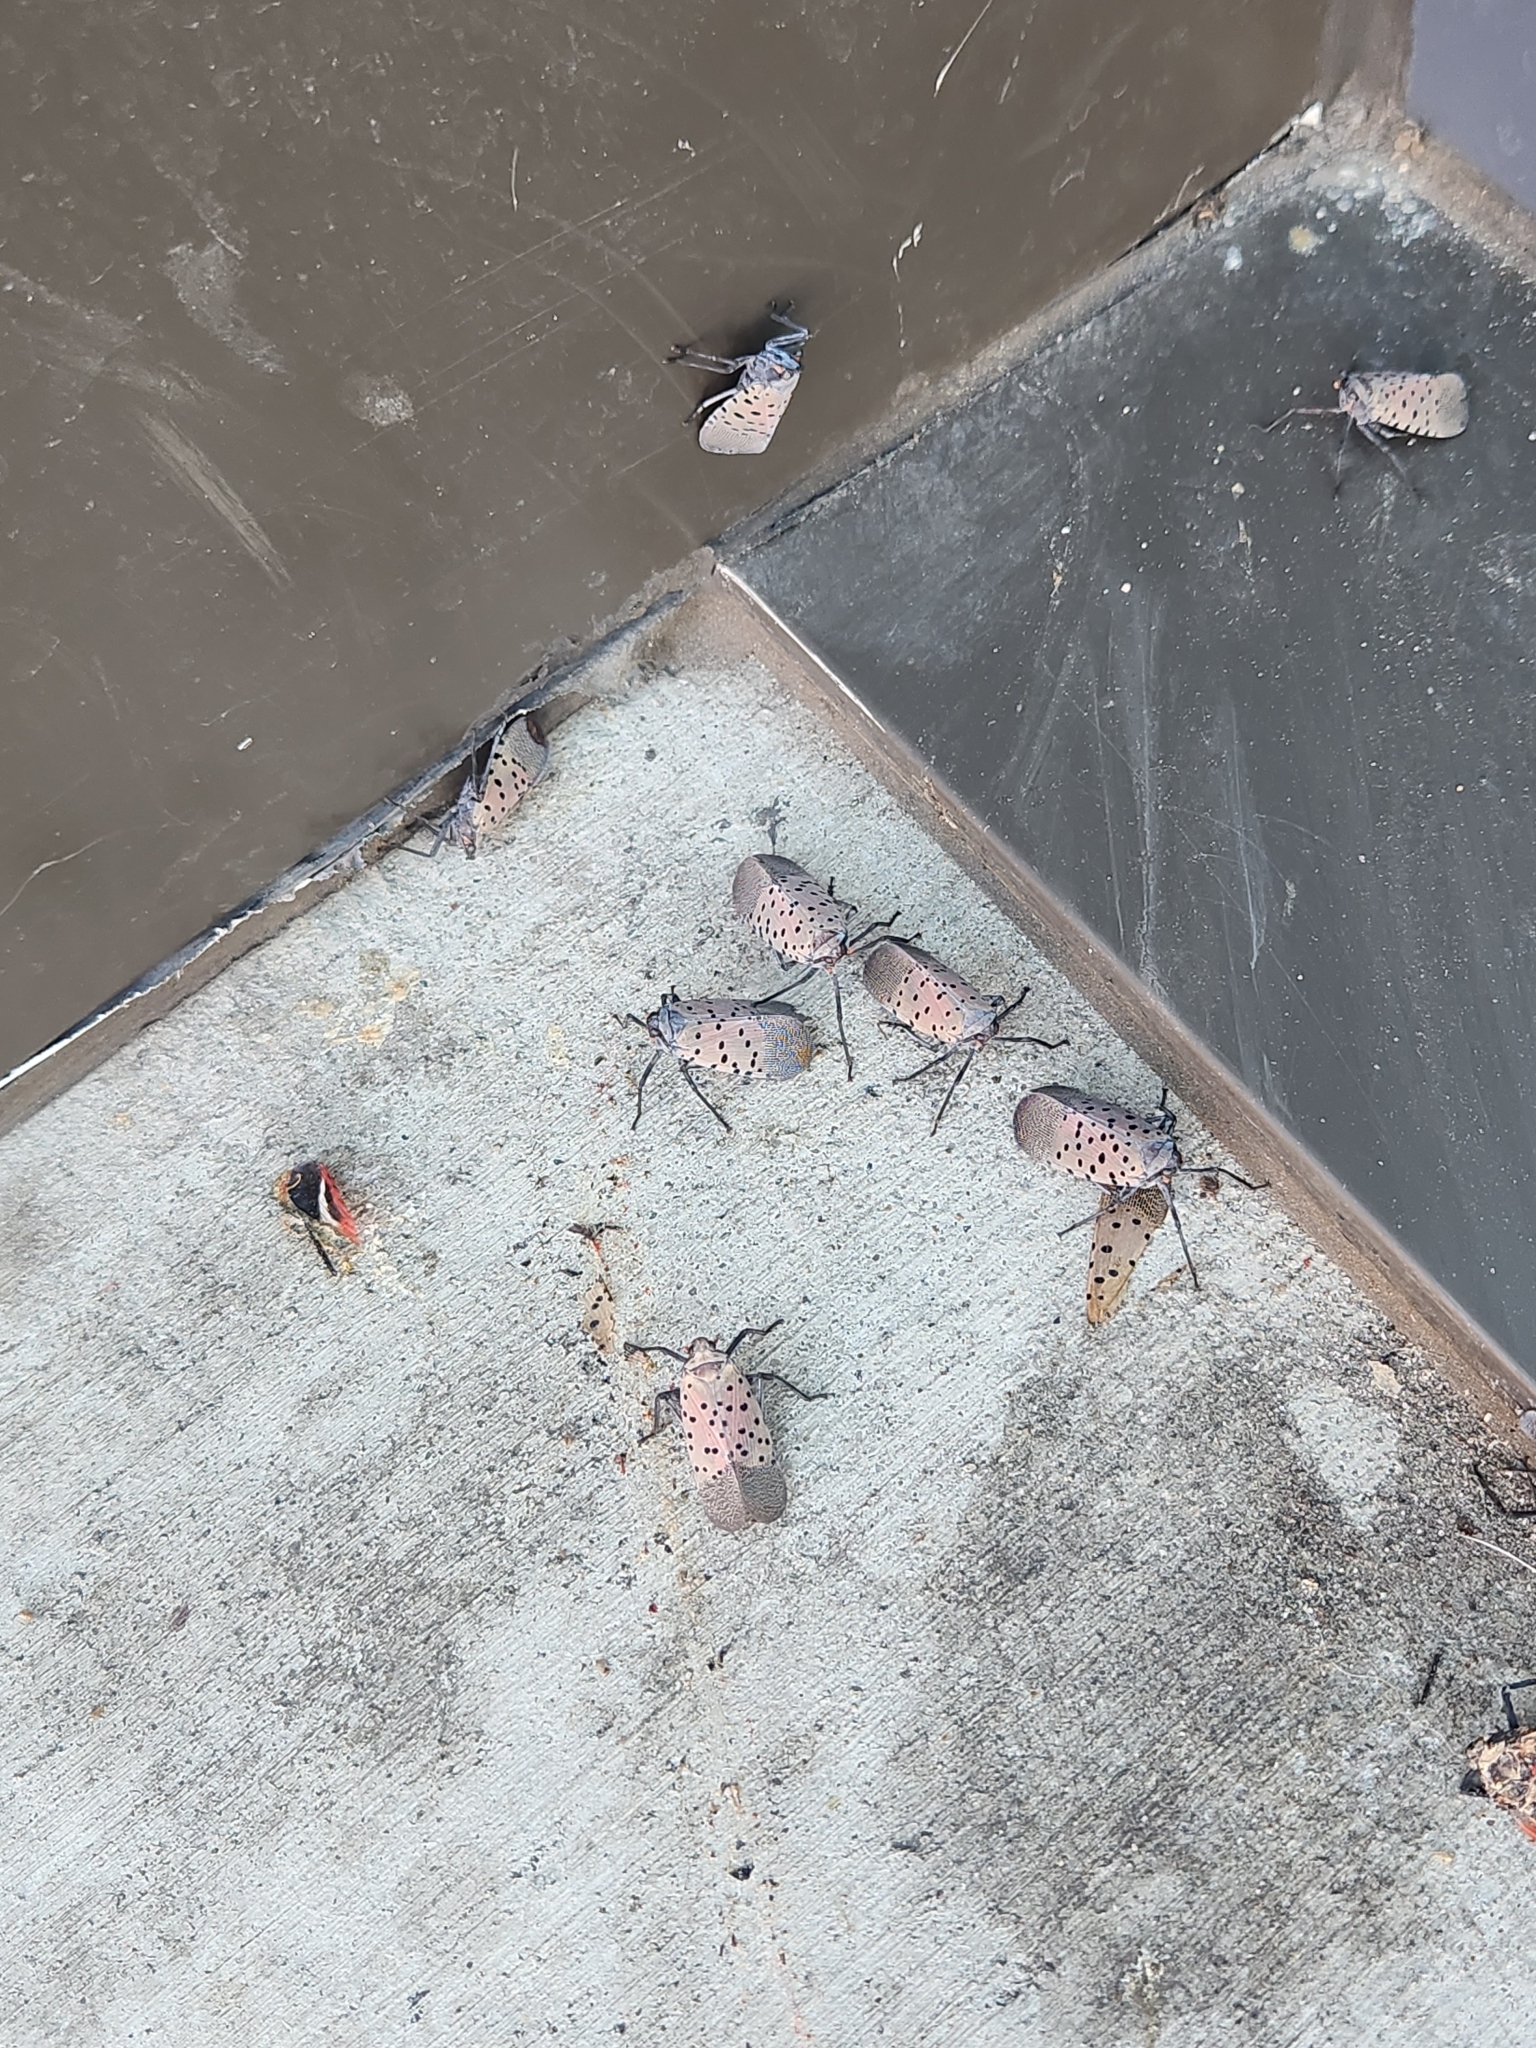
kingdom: Animalia
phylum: Arthropoda
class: Insecta
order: Hemiptera
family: Fulgoridae
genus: Lycorma
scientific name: Lycorma delicatula
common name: Spotted lanternfly
